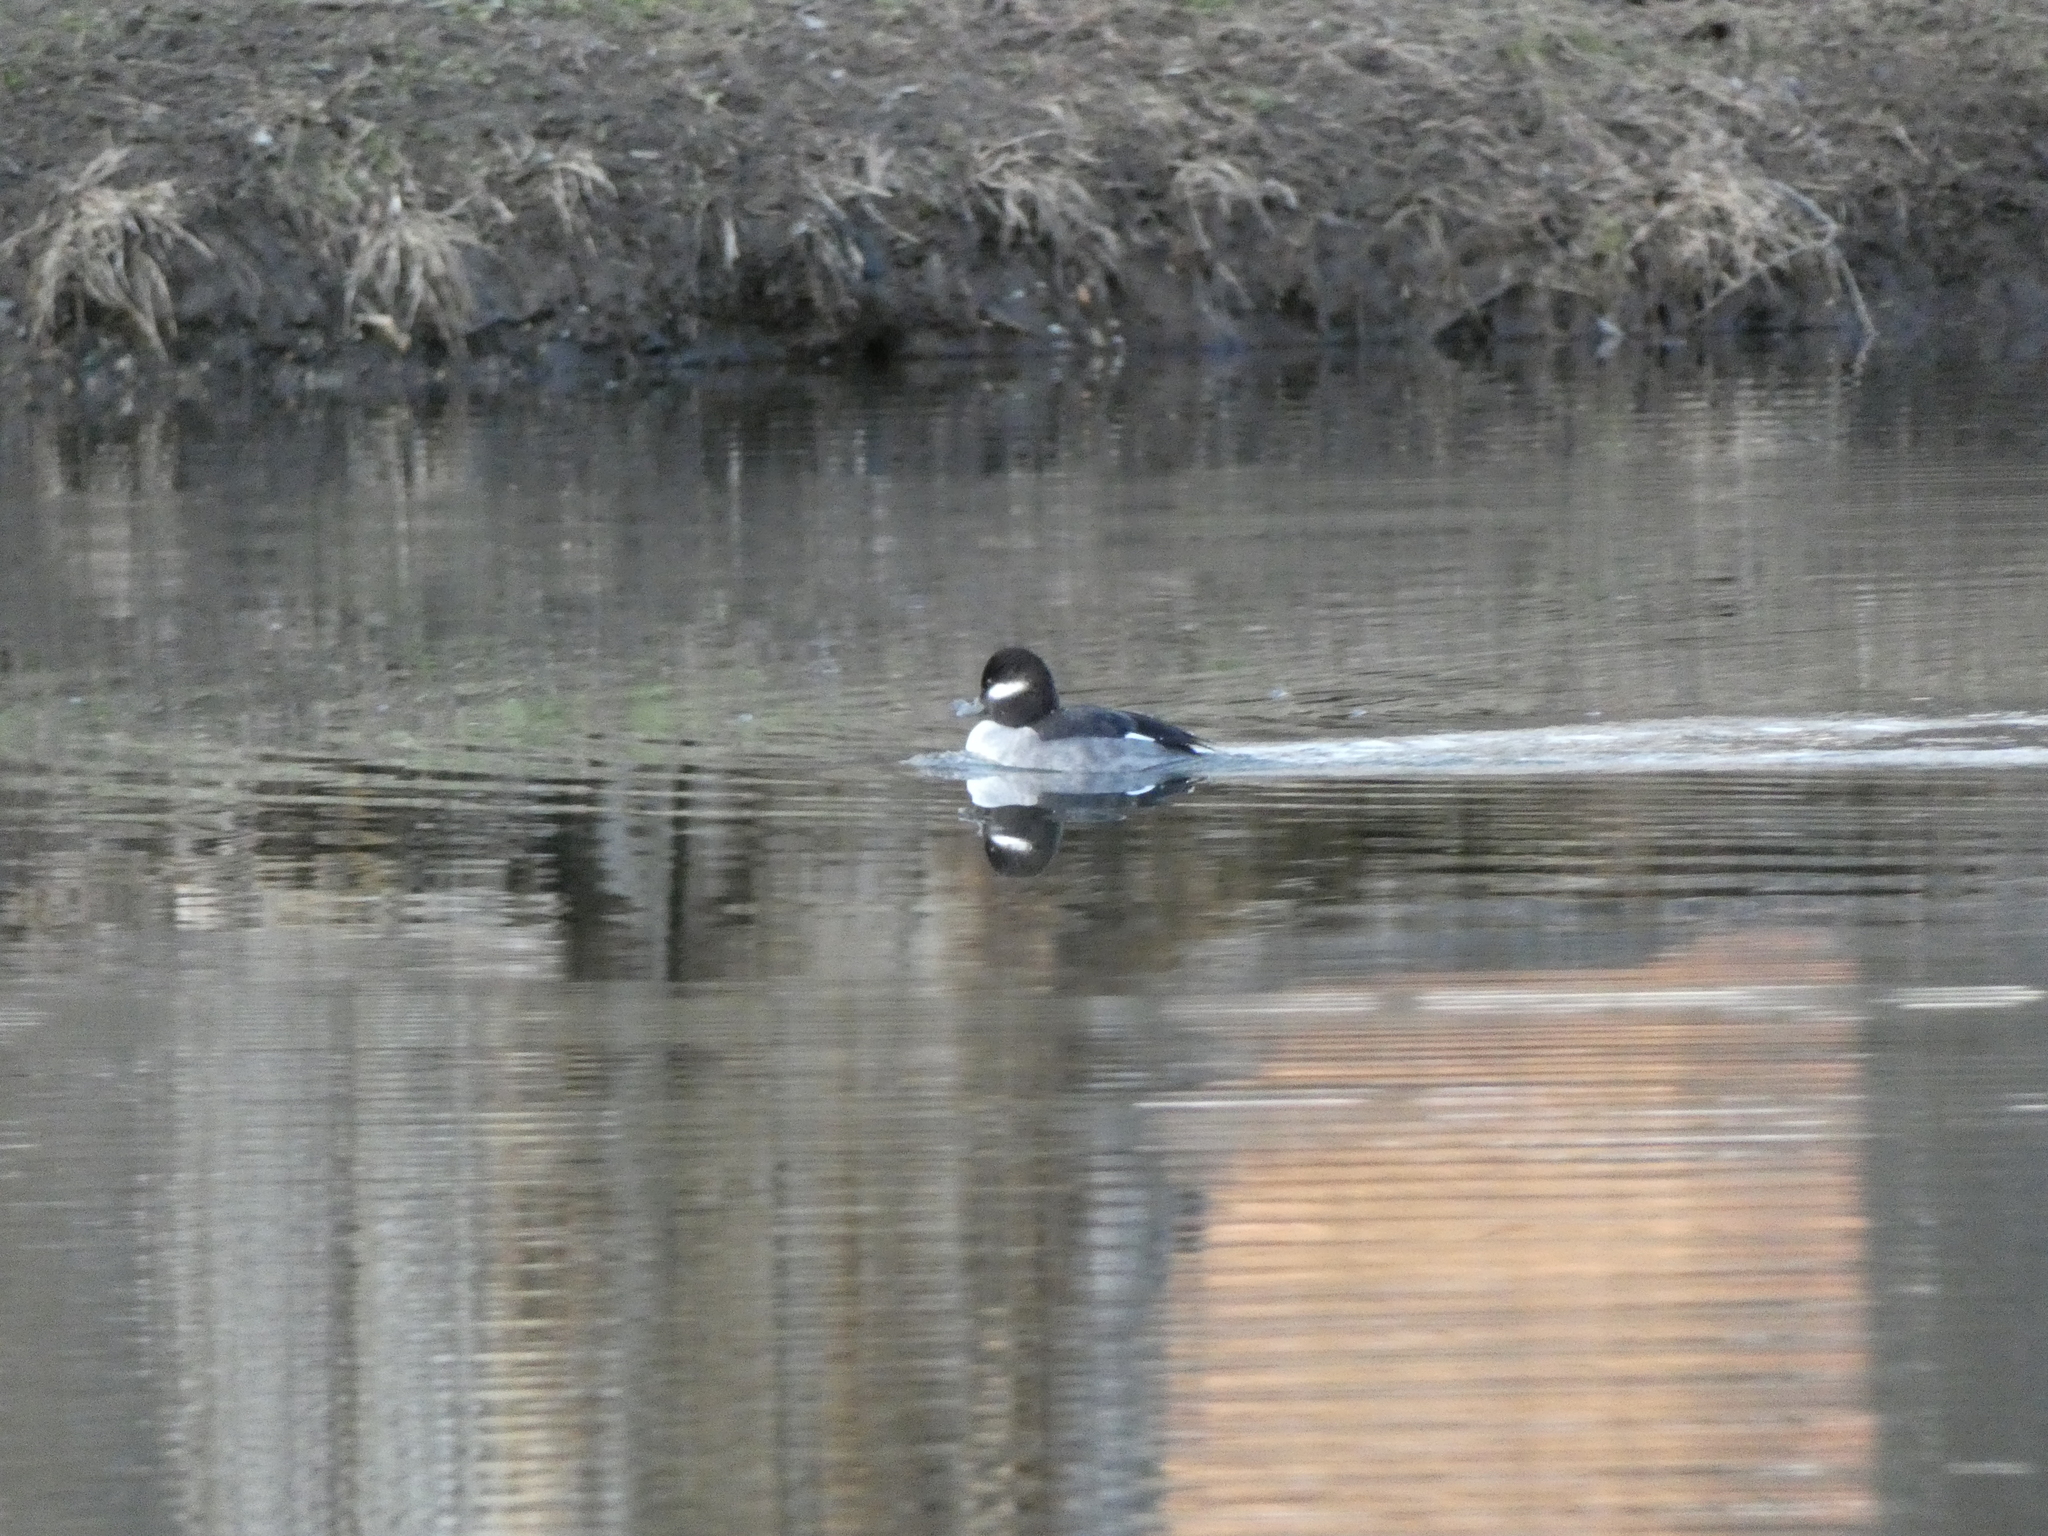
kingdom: Animalia
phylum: Chordata
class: Aves
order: Anseriformes
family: Anatidae
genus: Bucephala
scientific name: Bucephala albeola
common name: Bufflehead
